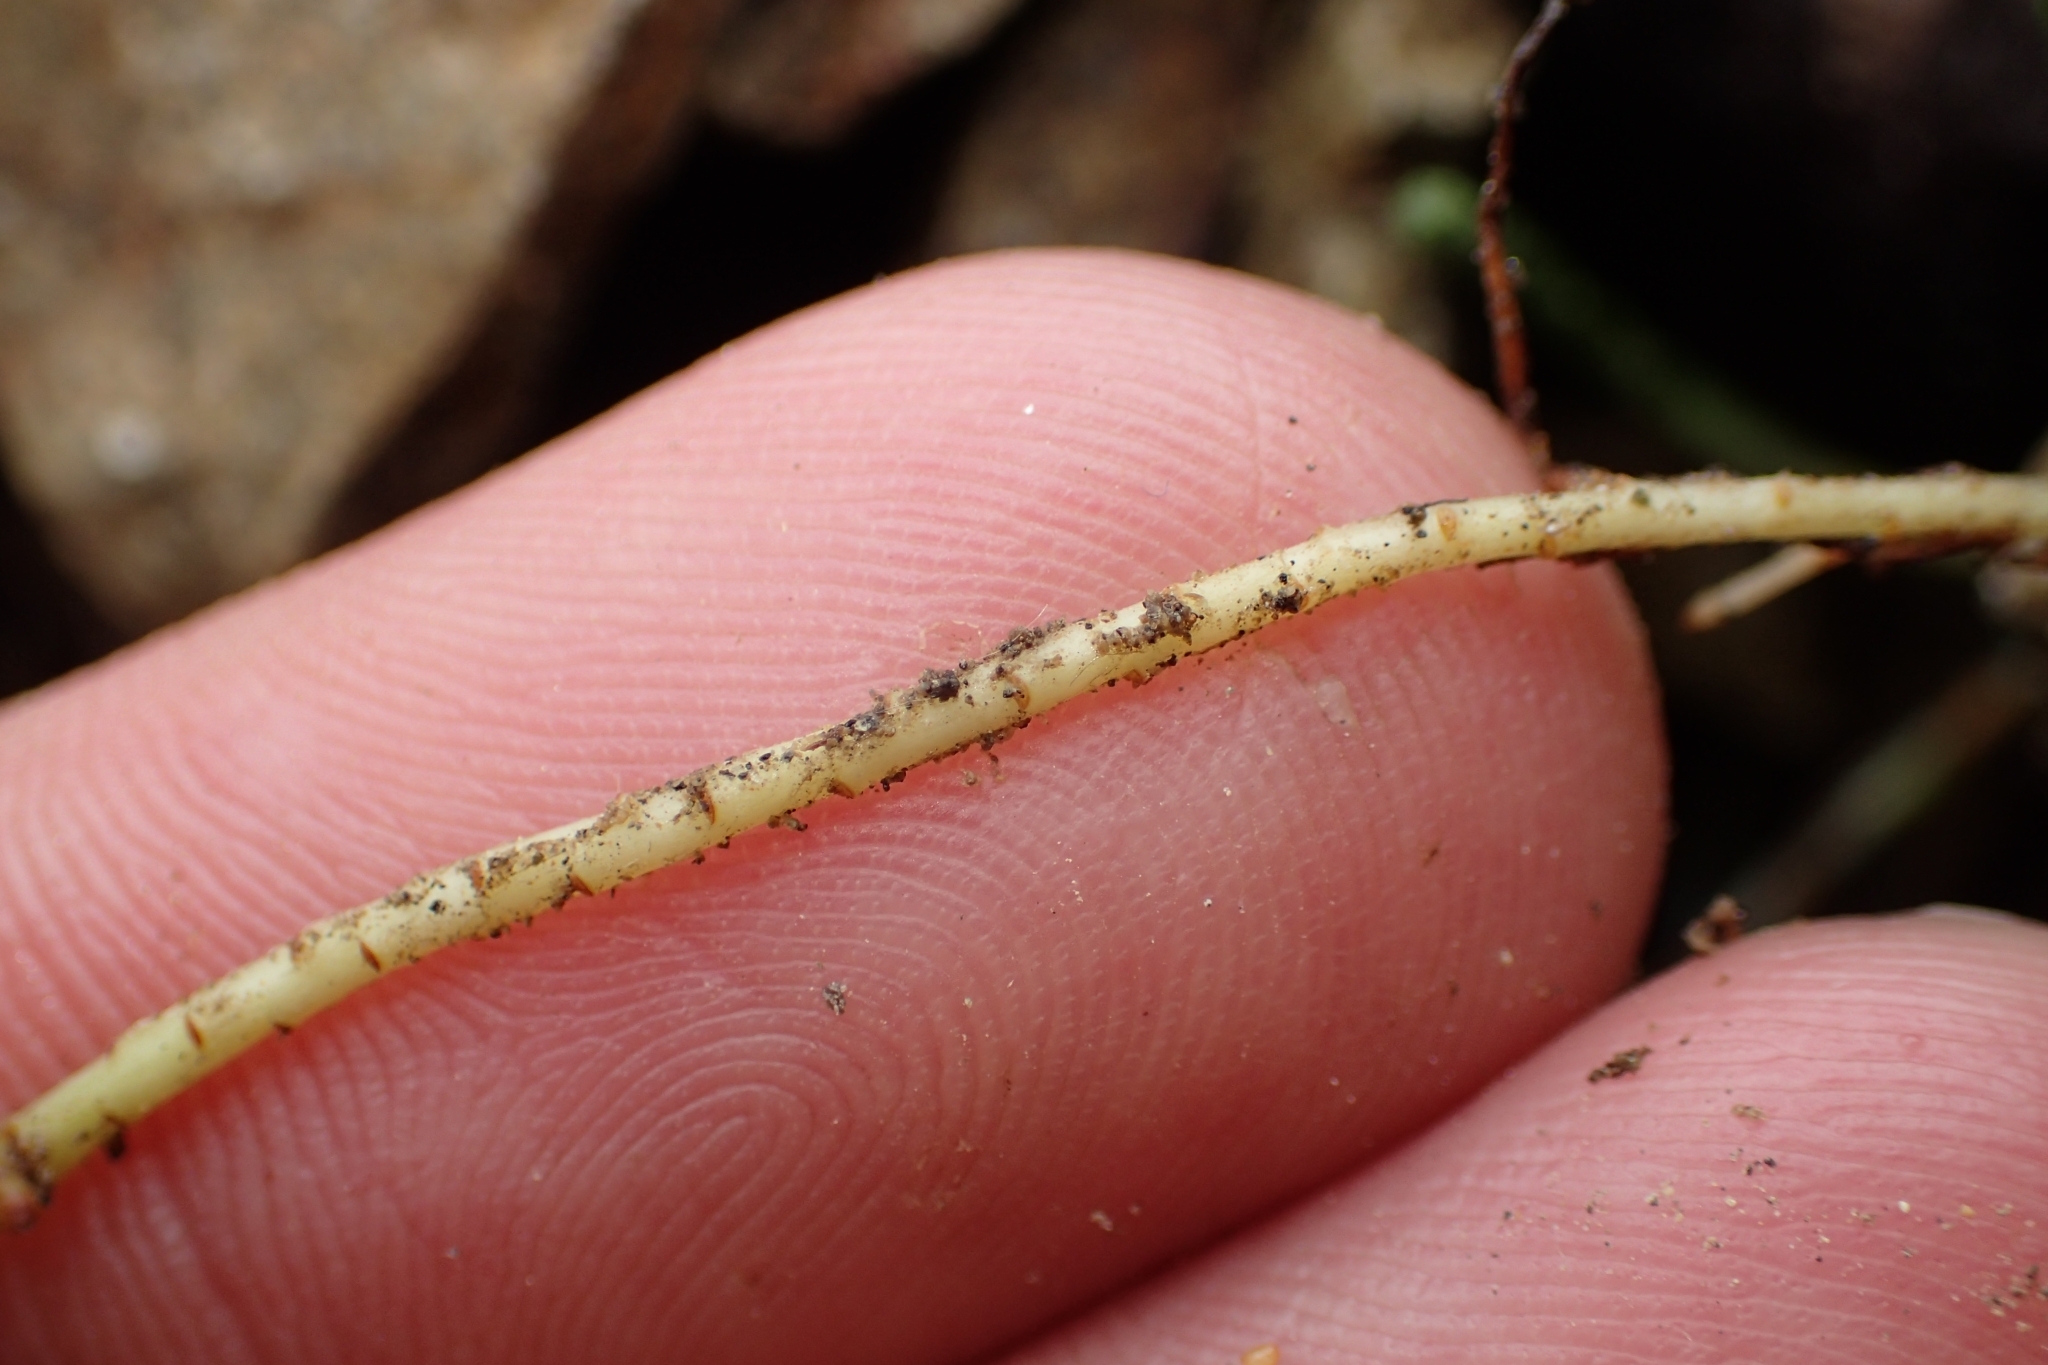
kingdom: Plantae
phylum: Tracheophyta
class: Magnoliopsida
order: Malvales
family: Thymelaeaceae
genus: Kelleria
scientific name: Kelleria dieffenbachii
